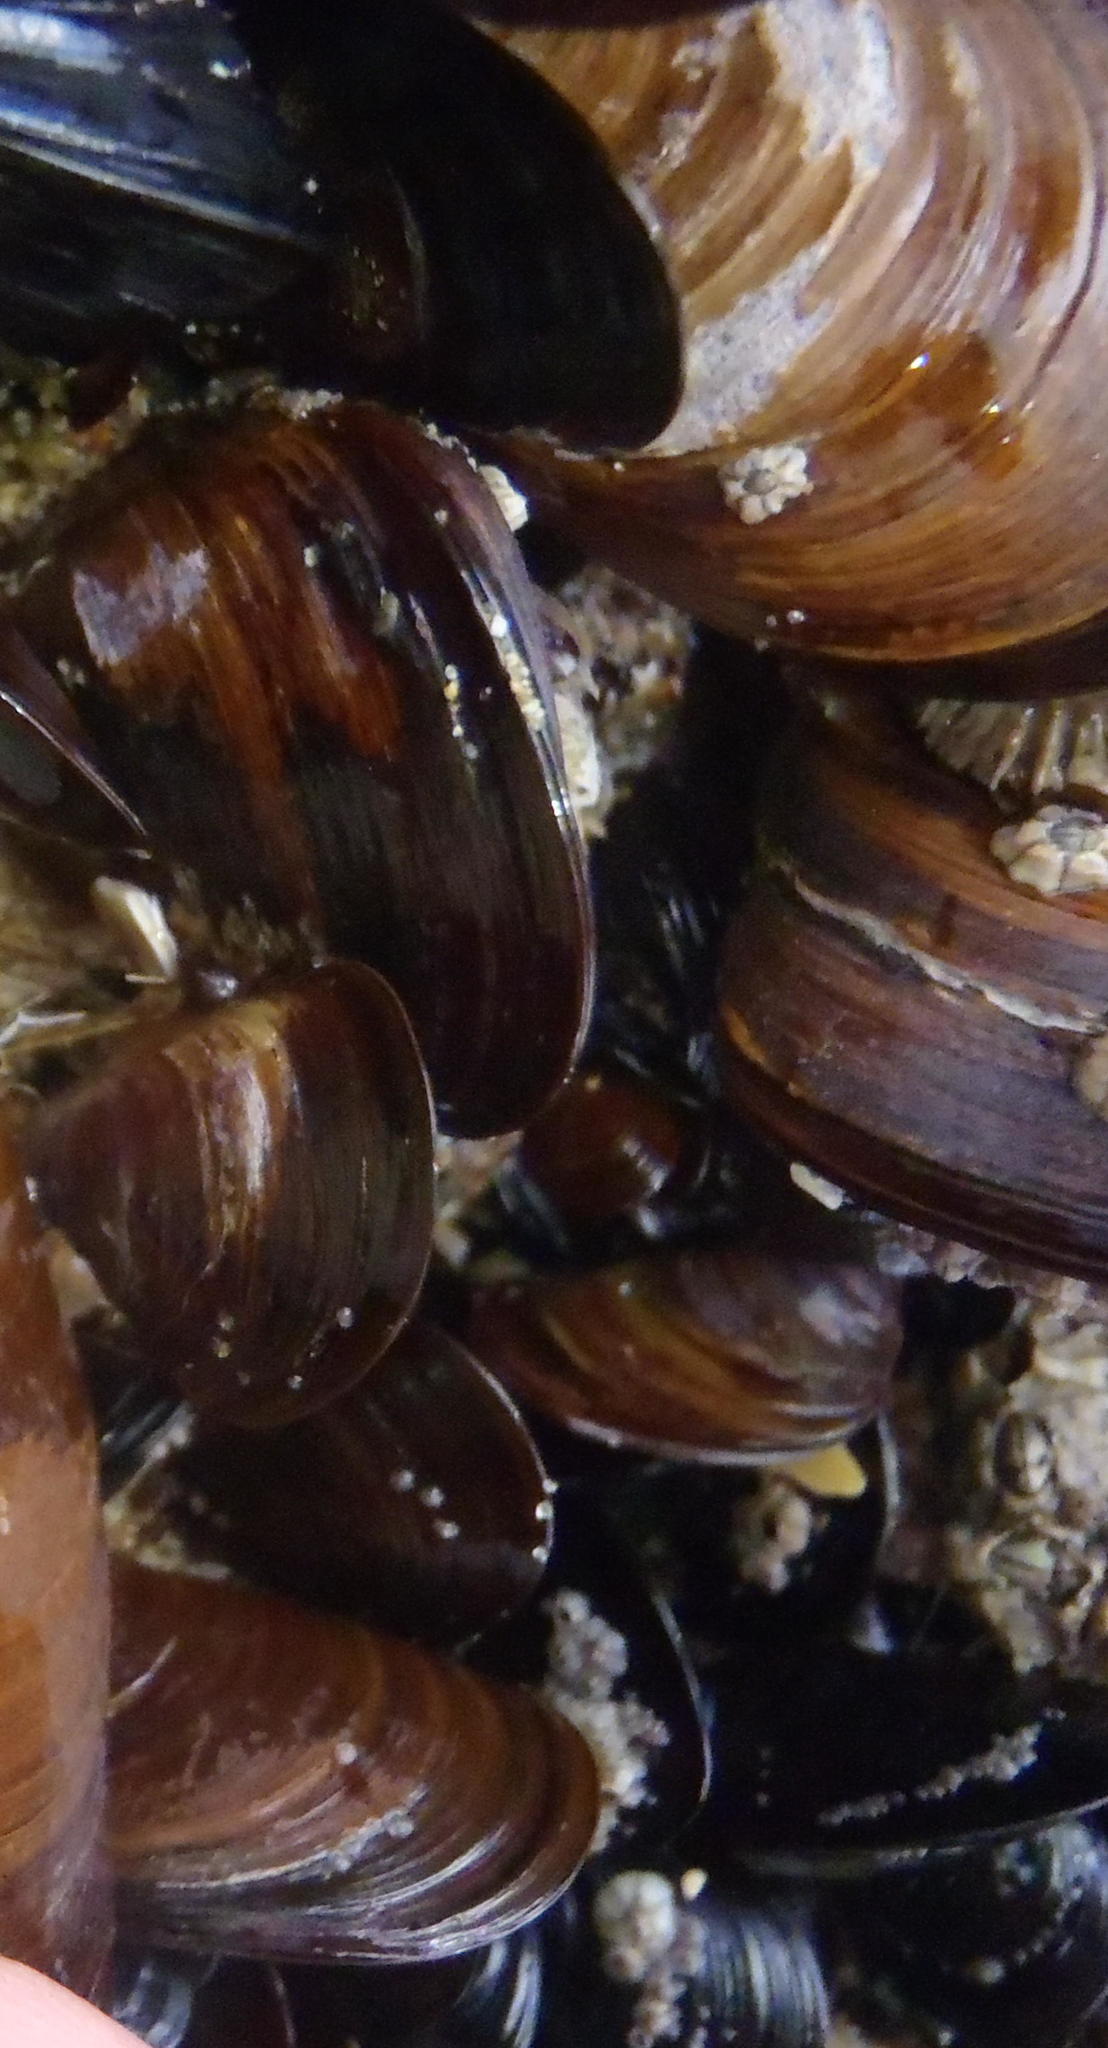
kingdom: Animalia
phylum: Mollusca
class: Bivalvia
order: Mytilida
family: Mytilidae
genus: Perna
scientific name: Perna perna
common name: Mexilhao mussel
